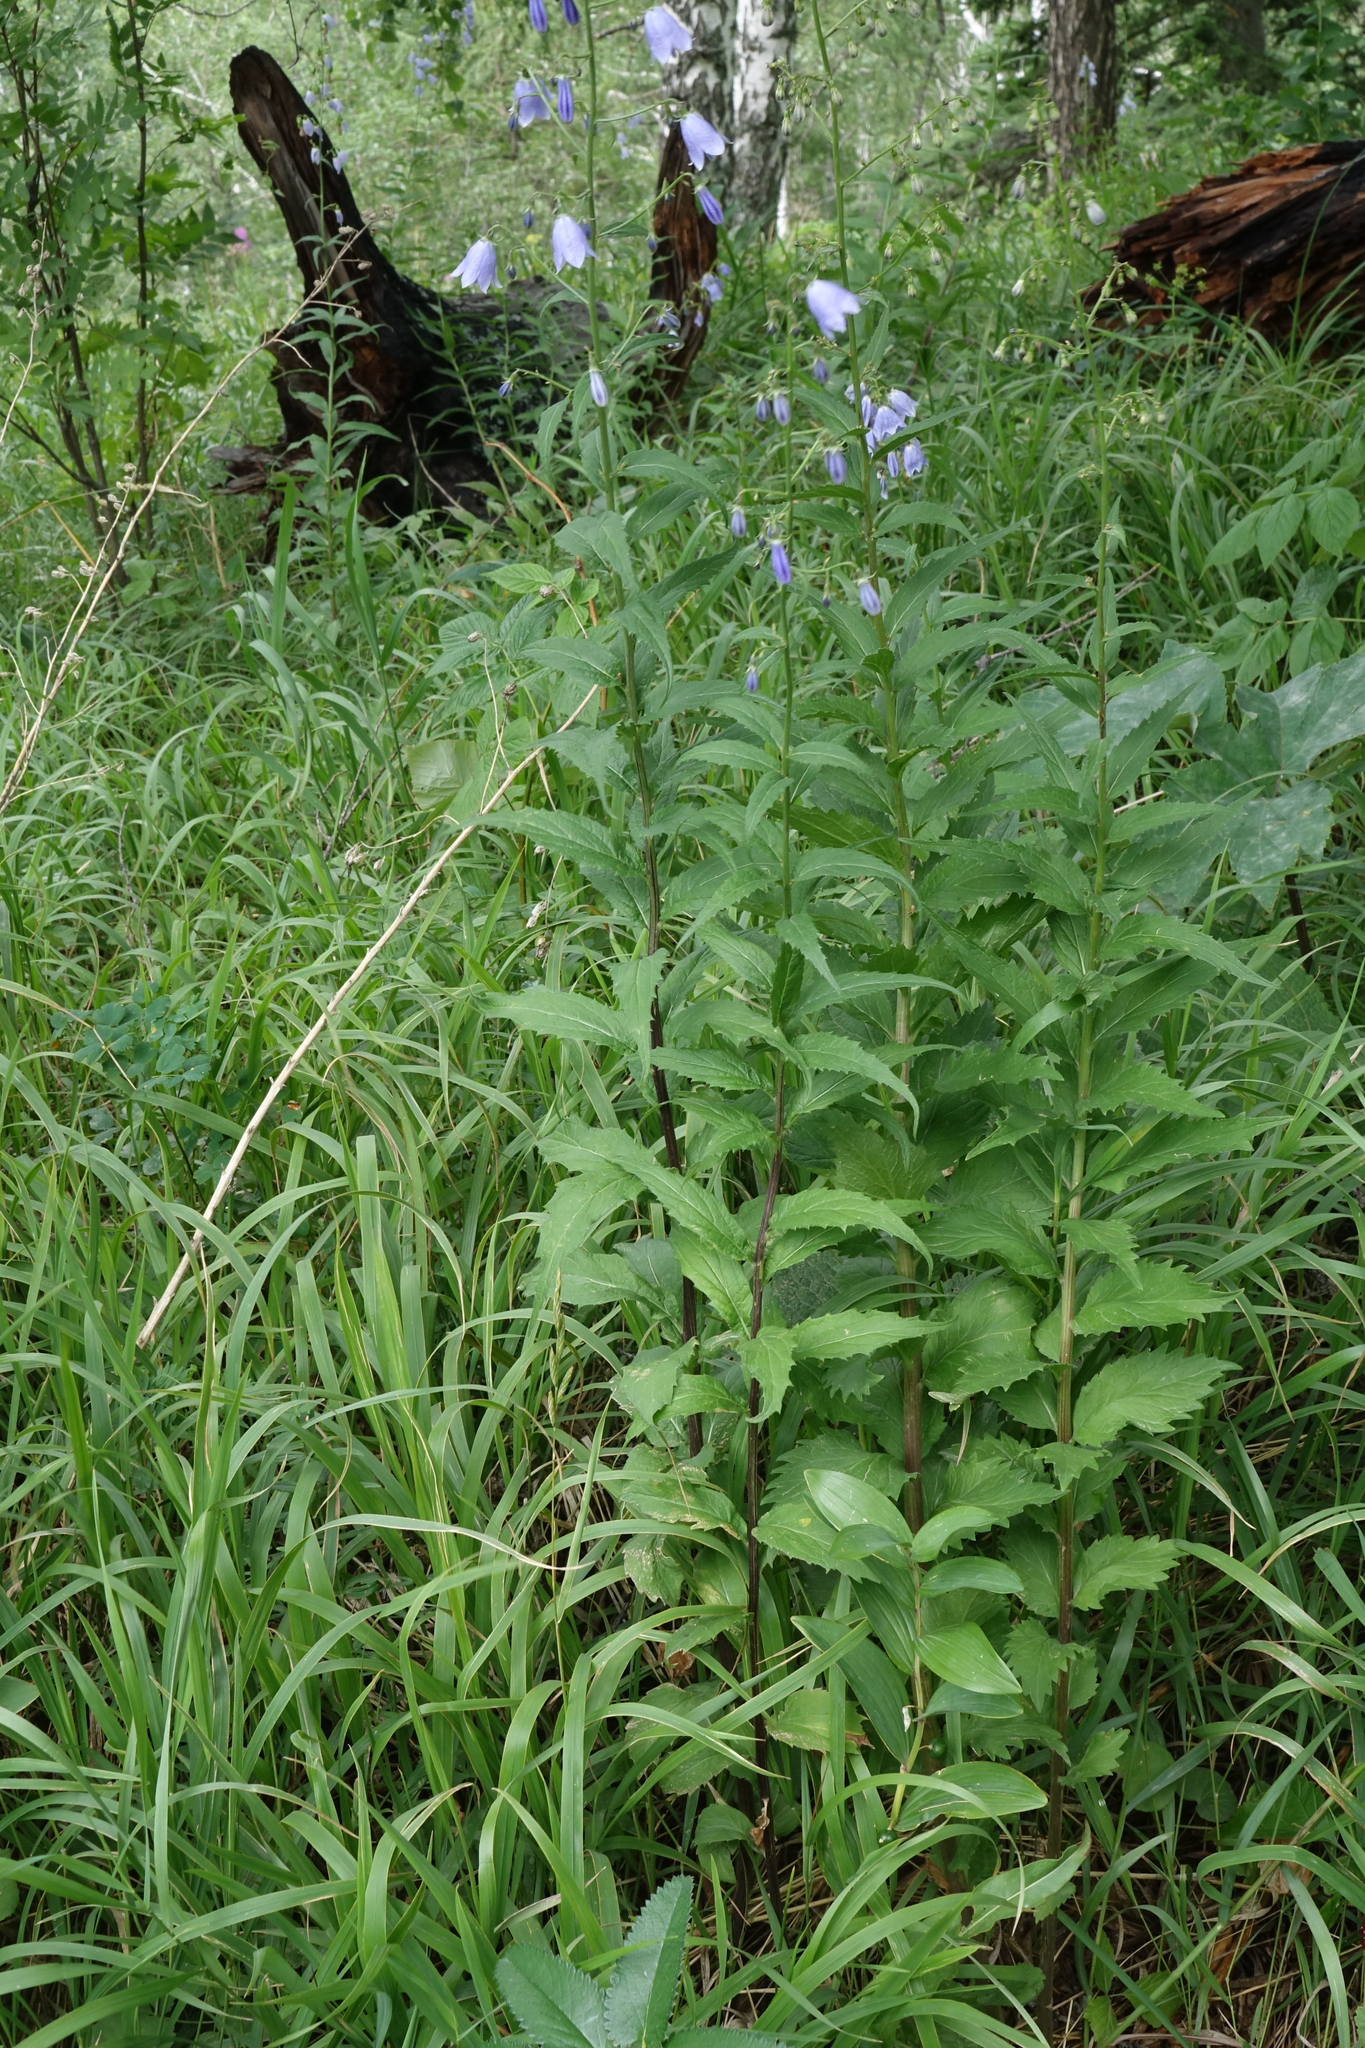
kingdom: Plantae
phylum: Tracheophyta
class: Magnoliopsida
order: Asterales
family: Campanulaceae
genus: Adenophora
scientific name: Adenophora liliifolia
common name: Lilyleaf ladybells
